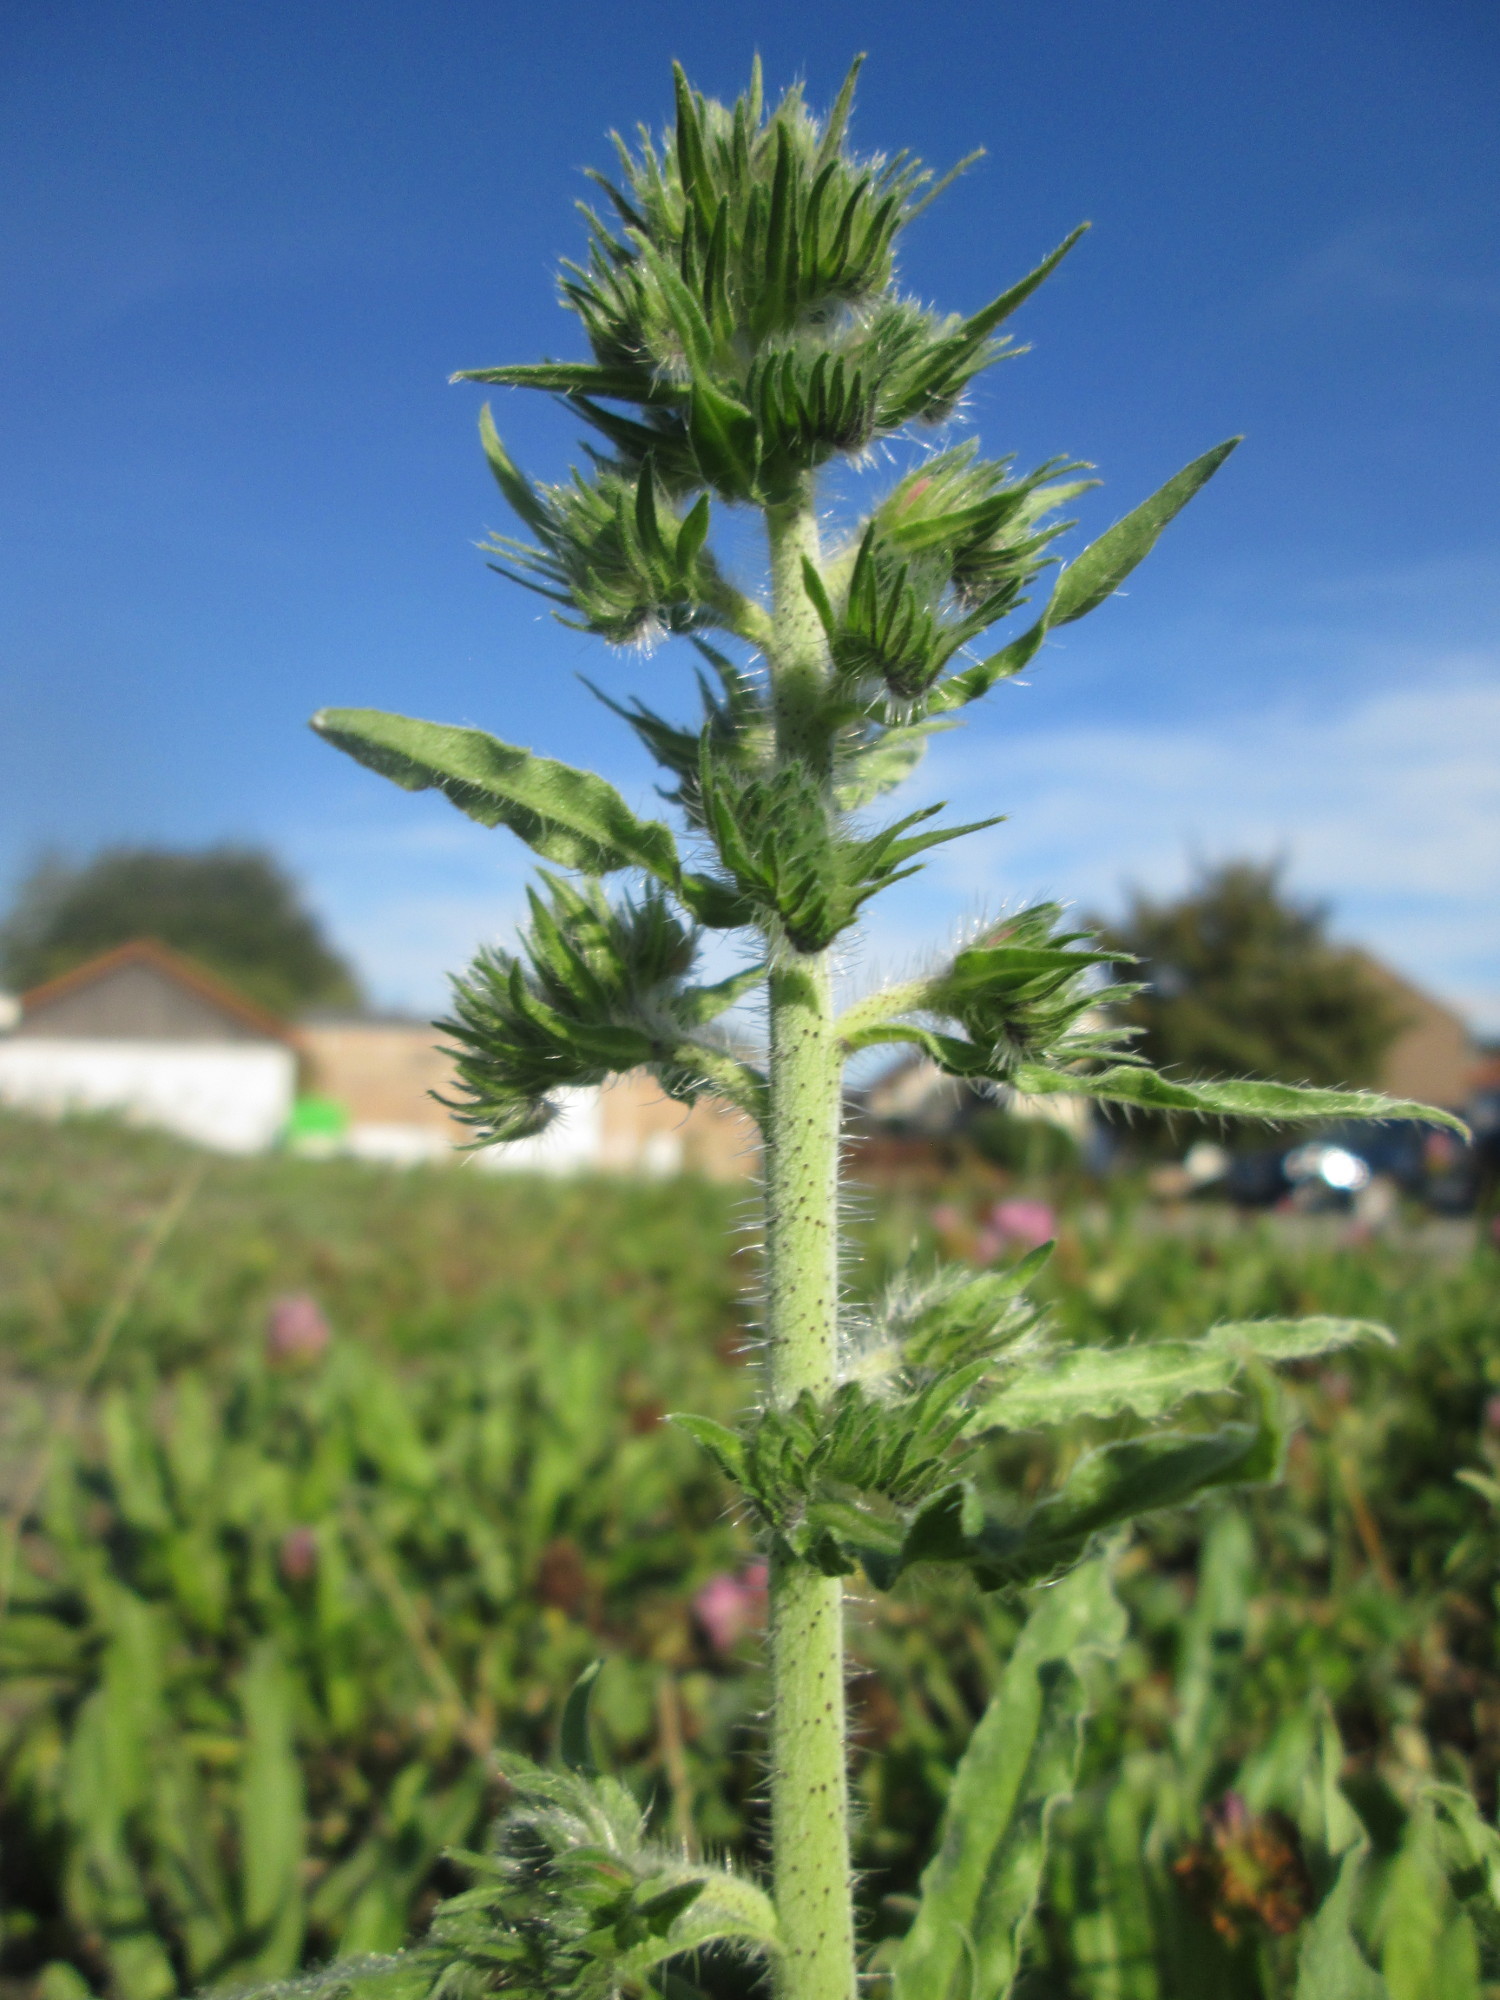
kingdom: Plantae
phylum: Tracheophyta
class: Magnoliopsida
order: Boraginales
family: Boraginaceae
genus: Echium
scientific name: Echium vulgare
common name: Common viper's bugloss
